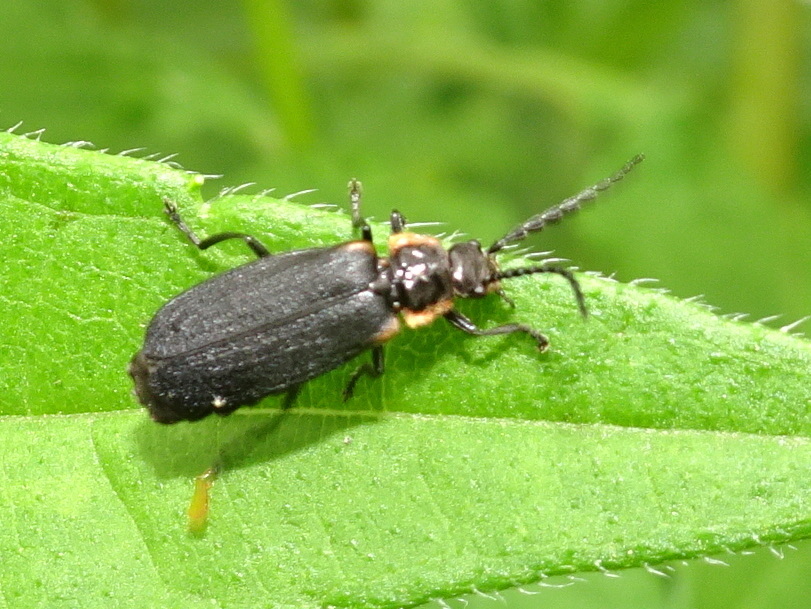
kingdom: Animalia
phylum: Arthropoda
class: Insecta
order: Coleoptera
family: Cantharidae
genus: Polemius
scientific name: Polemius laticornis
